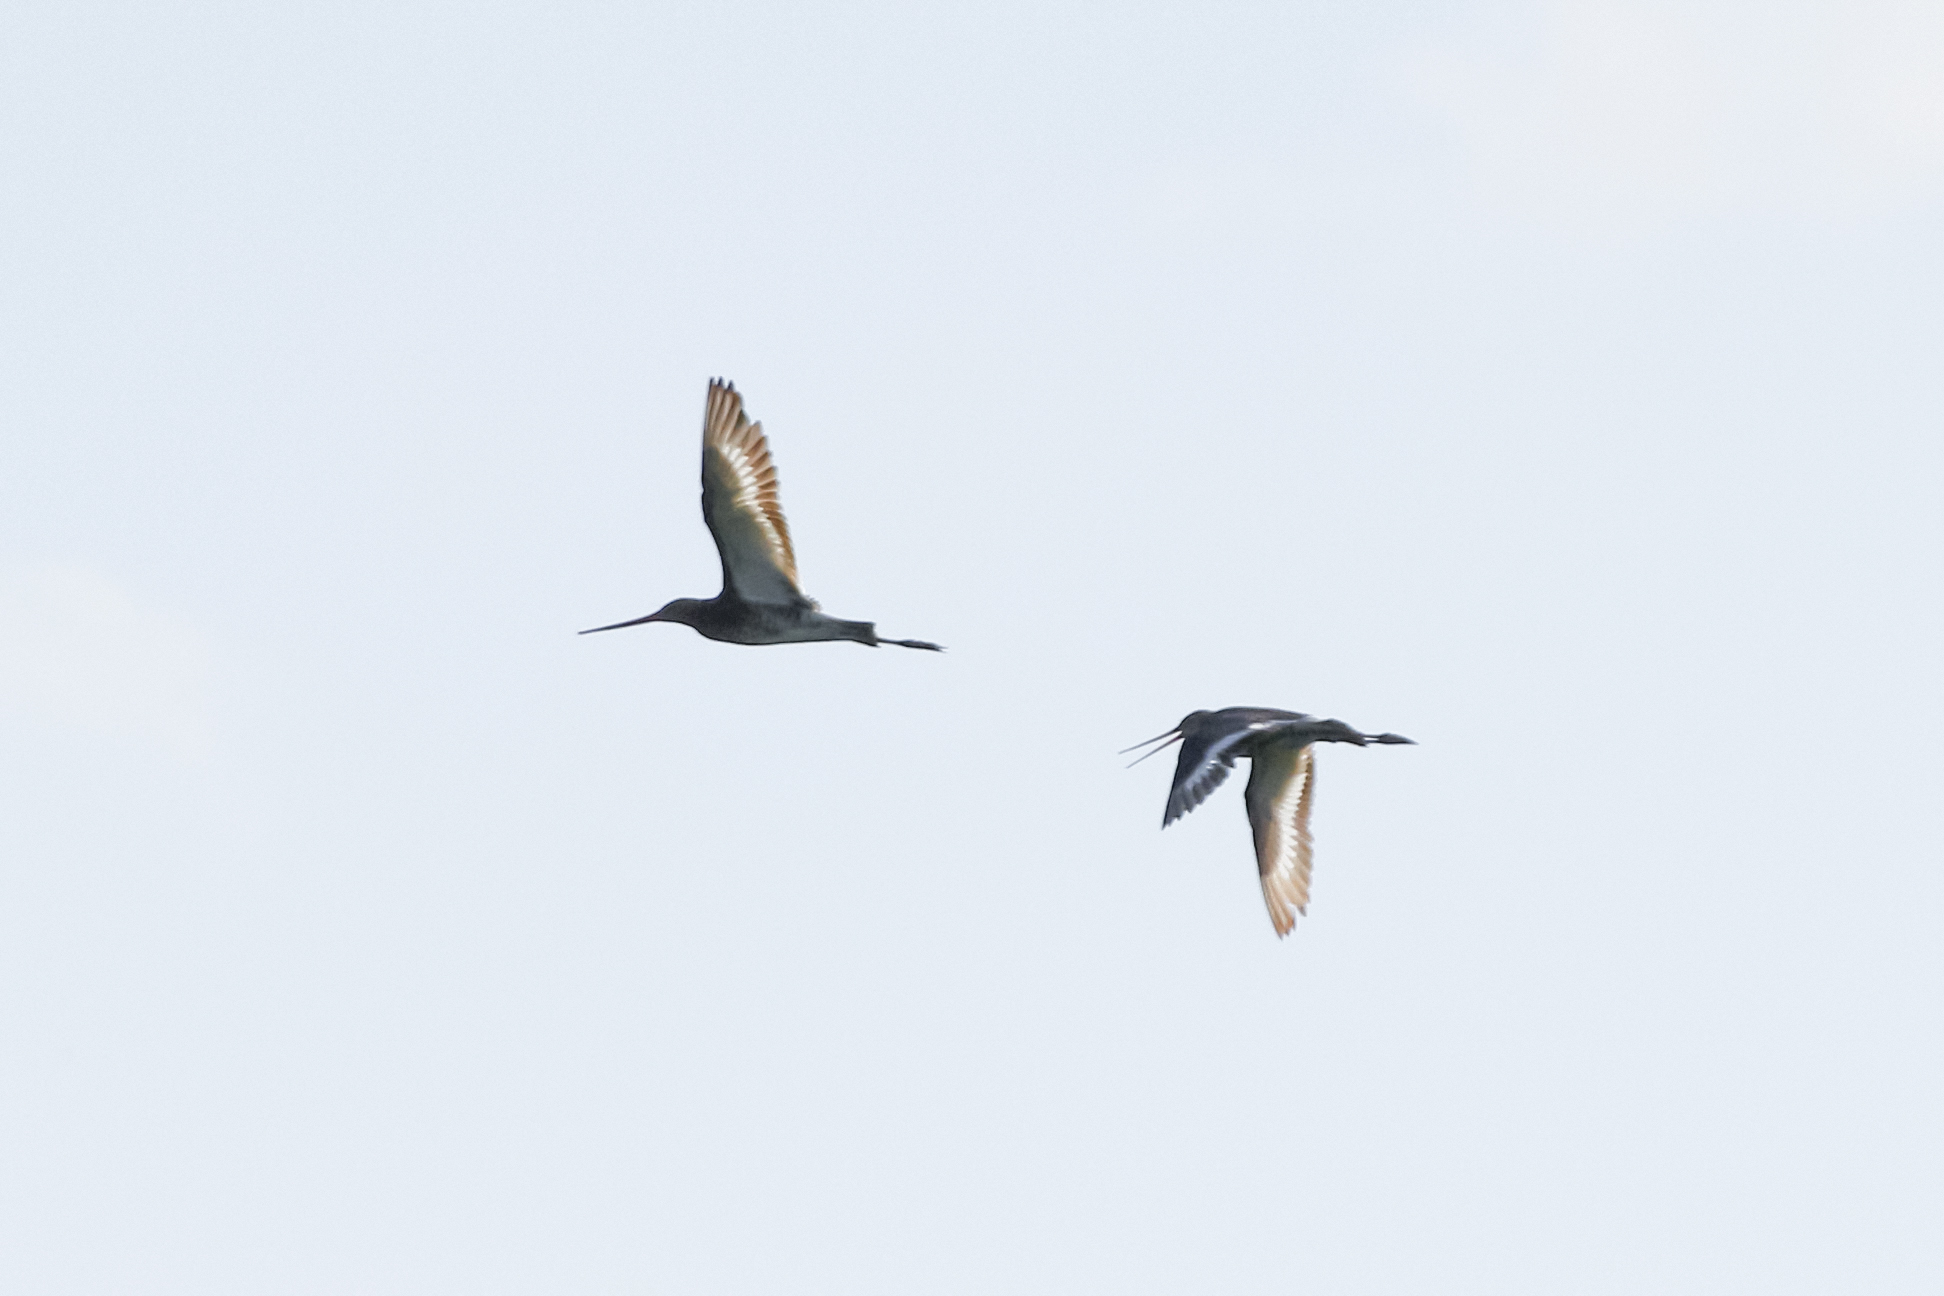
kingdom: Animalia
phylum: Chordata
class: Aves
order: Charadriiformes
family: Scolopacidae
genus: Limosa
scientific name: Limosa limosa
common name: Black-tailed godwit
